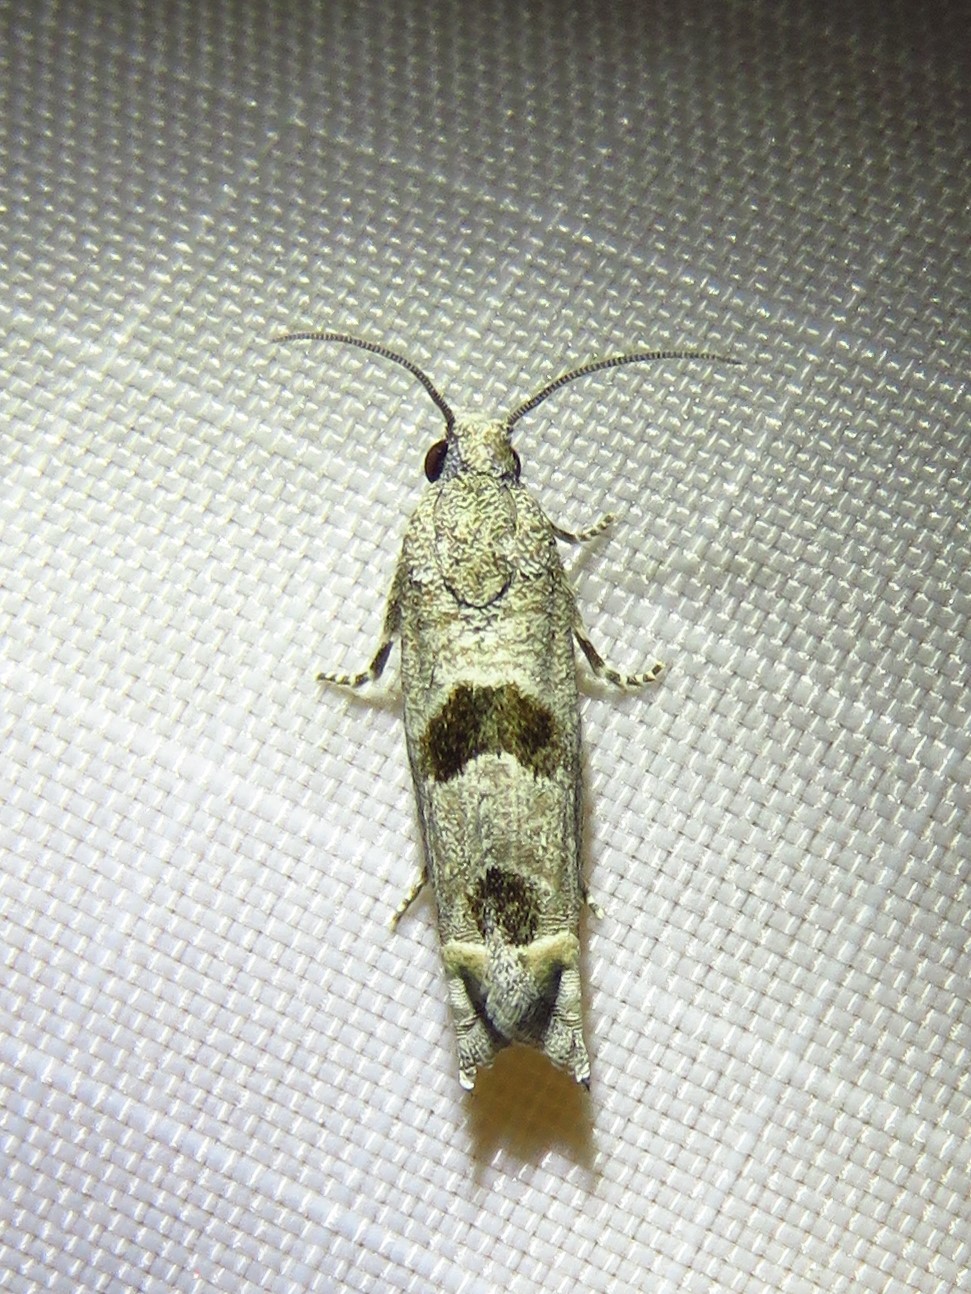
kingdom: Animalia
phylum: Arthropoda
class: Insecta
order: Lepidoptera
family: Tortricidae
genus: Suleima
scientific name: Suleima helianthana
